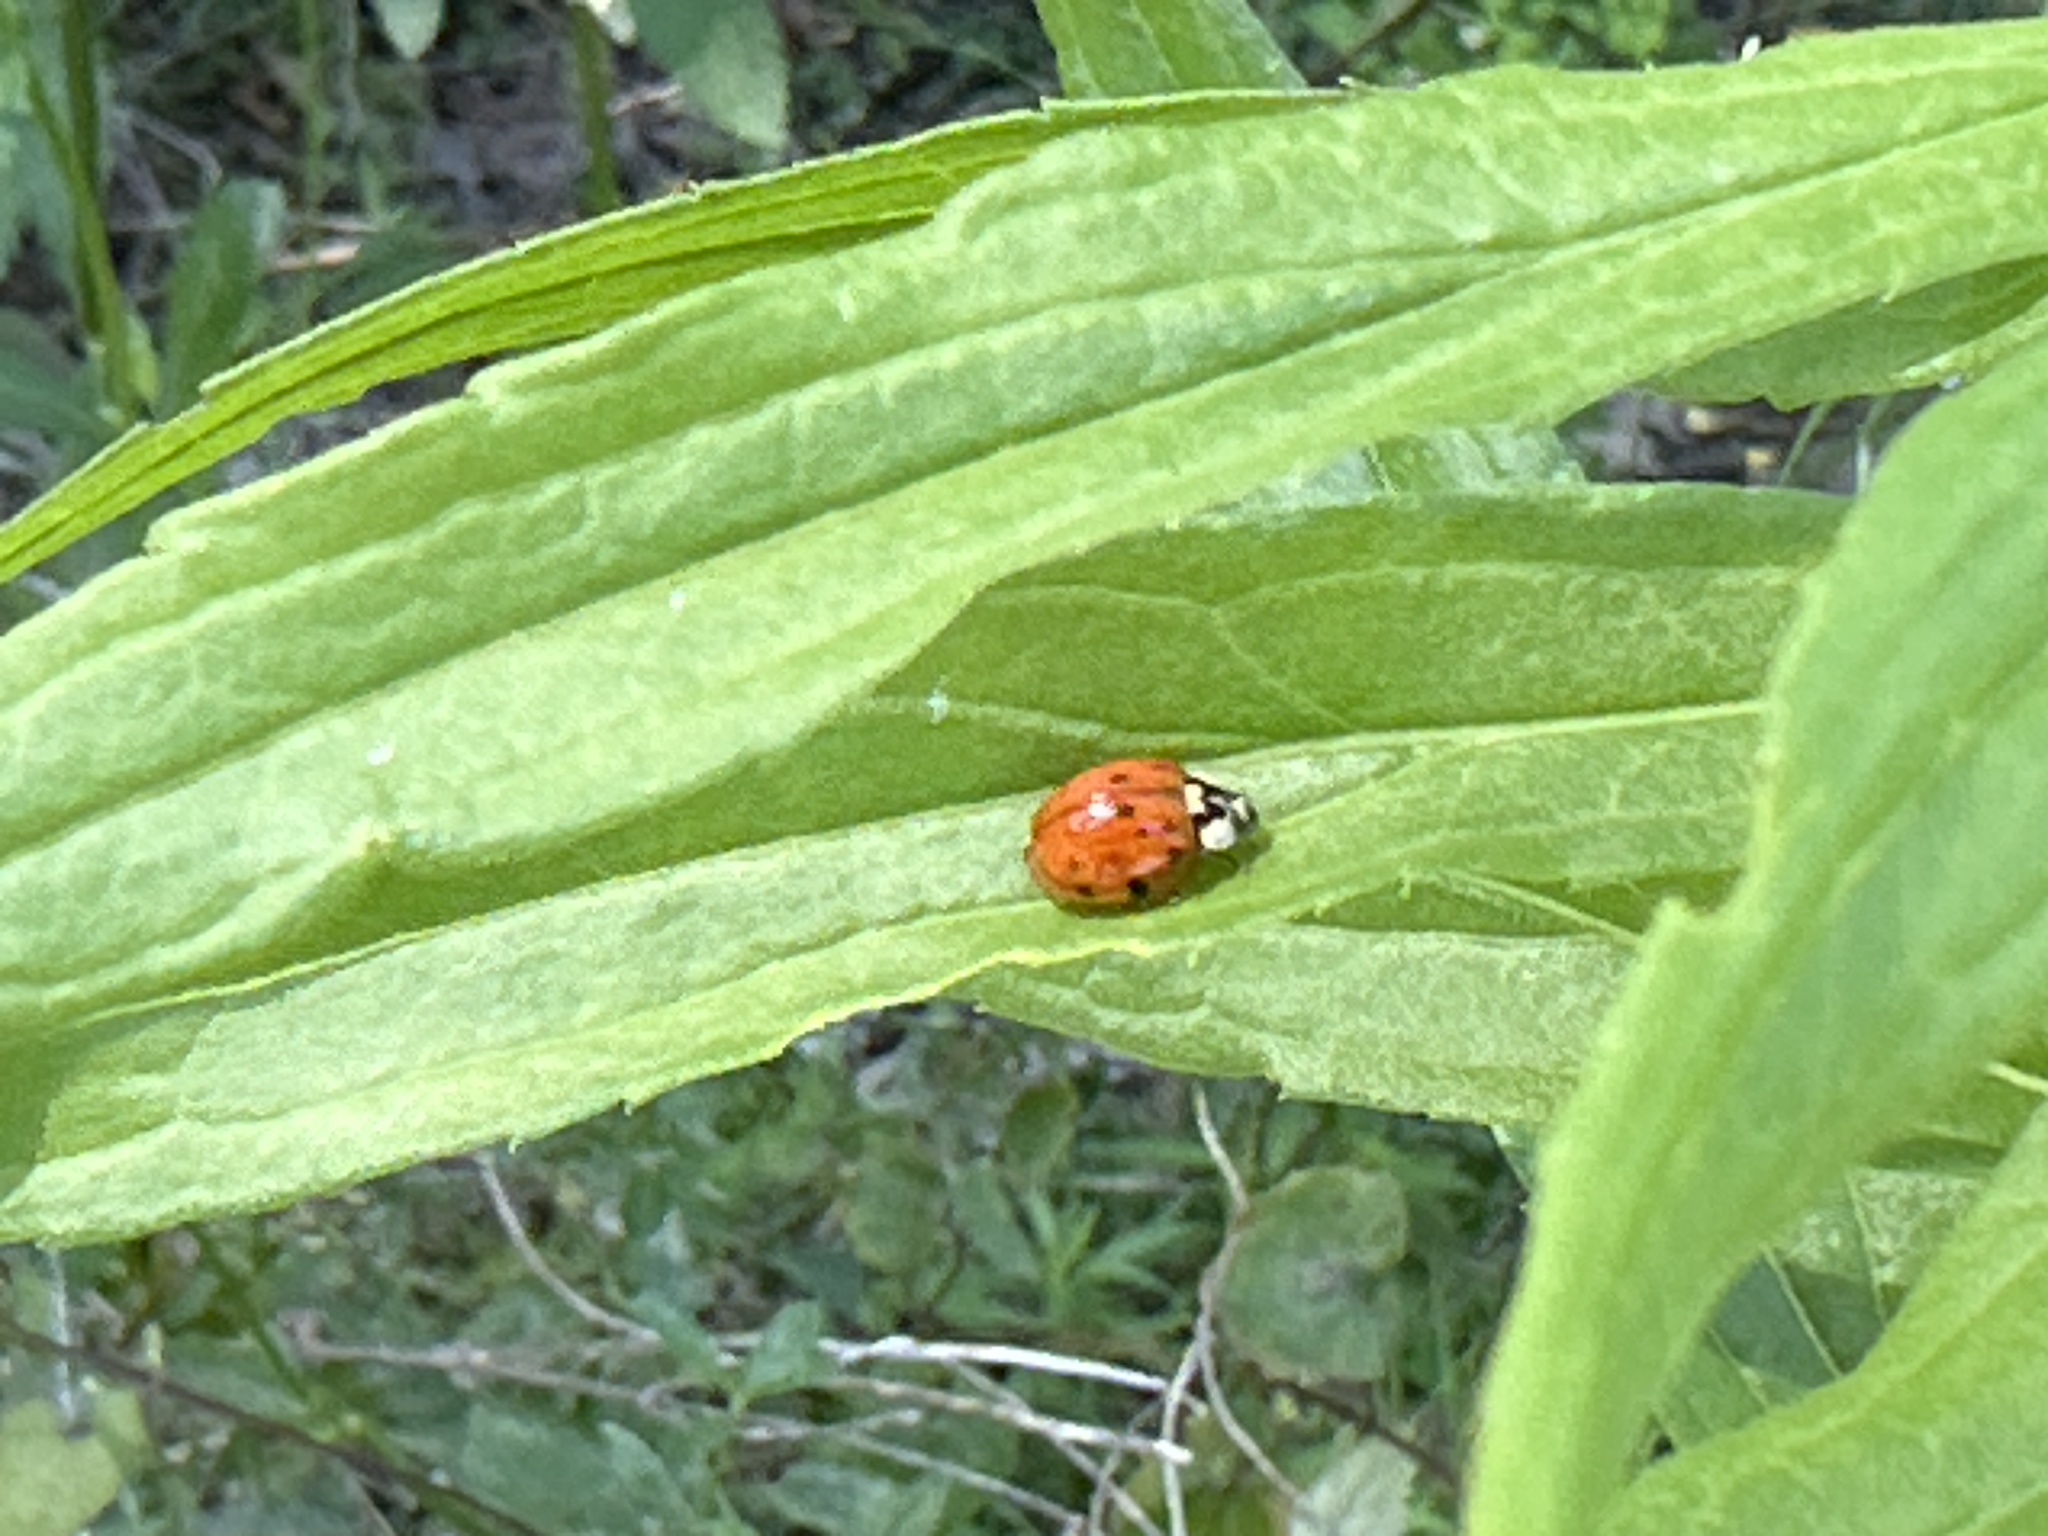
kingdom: Animalia
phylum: Arthropoda
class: Insecta
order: Coleoptera
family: Coccinellidae
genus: Harmonia
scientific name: Harmonia axyridis
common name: Harlequin ladybird
